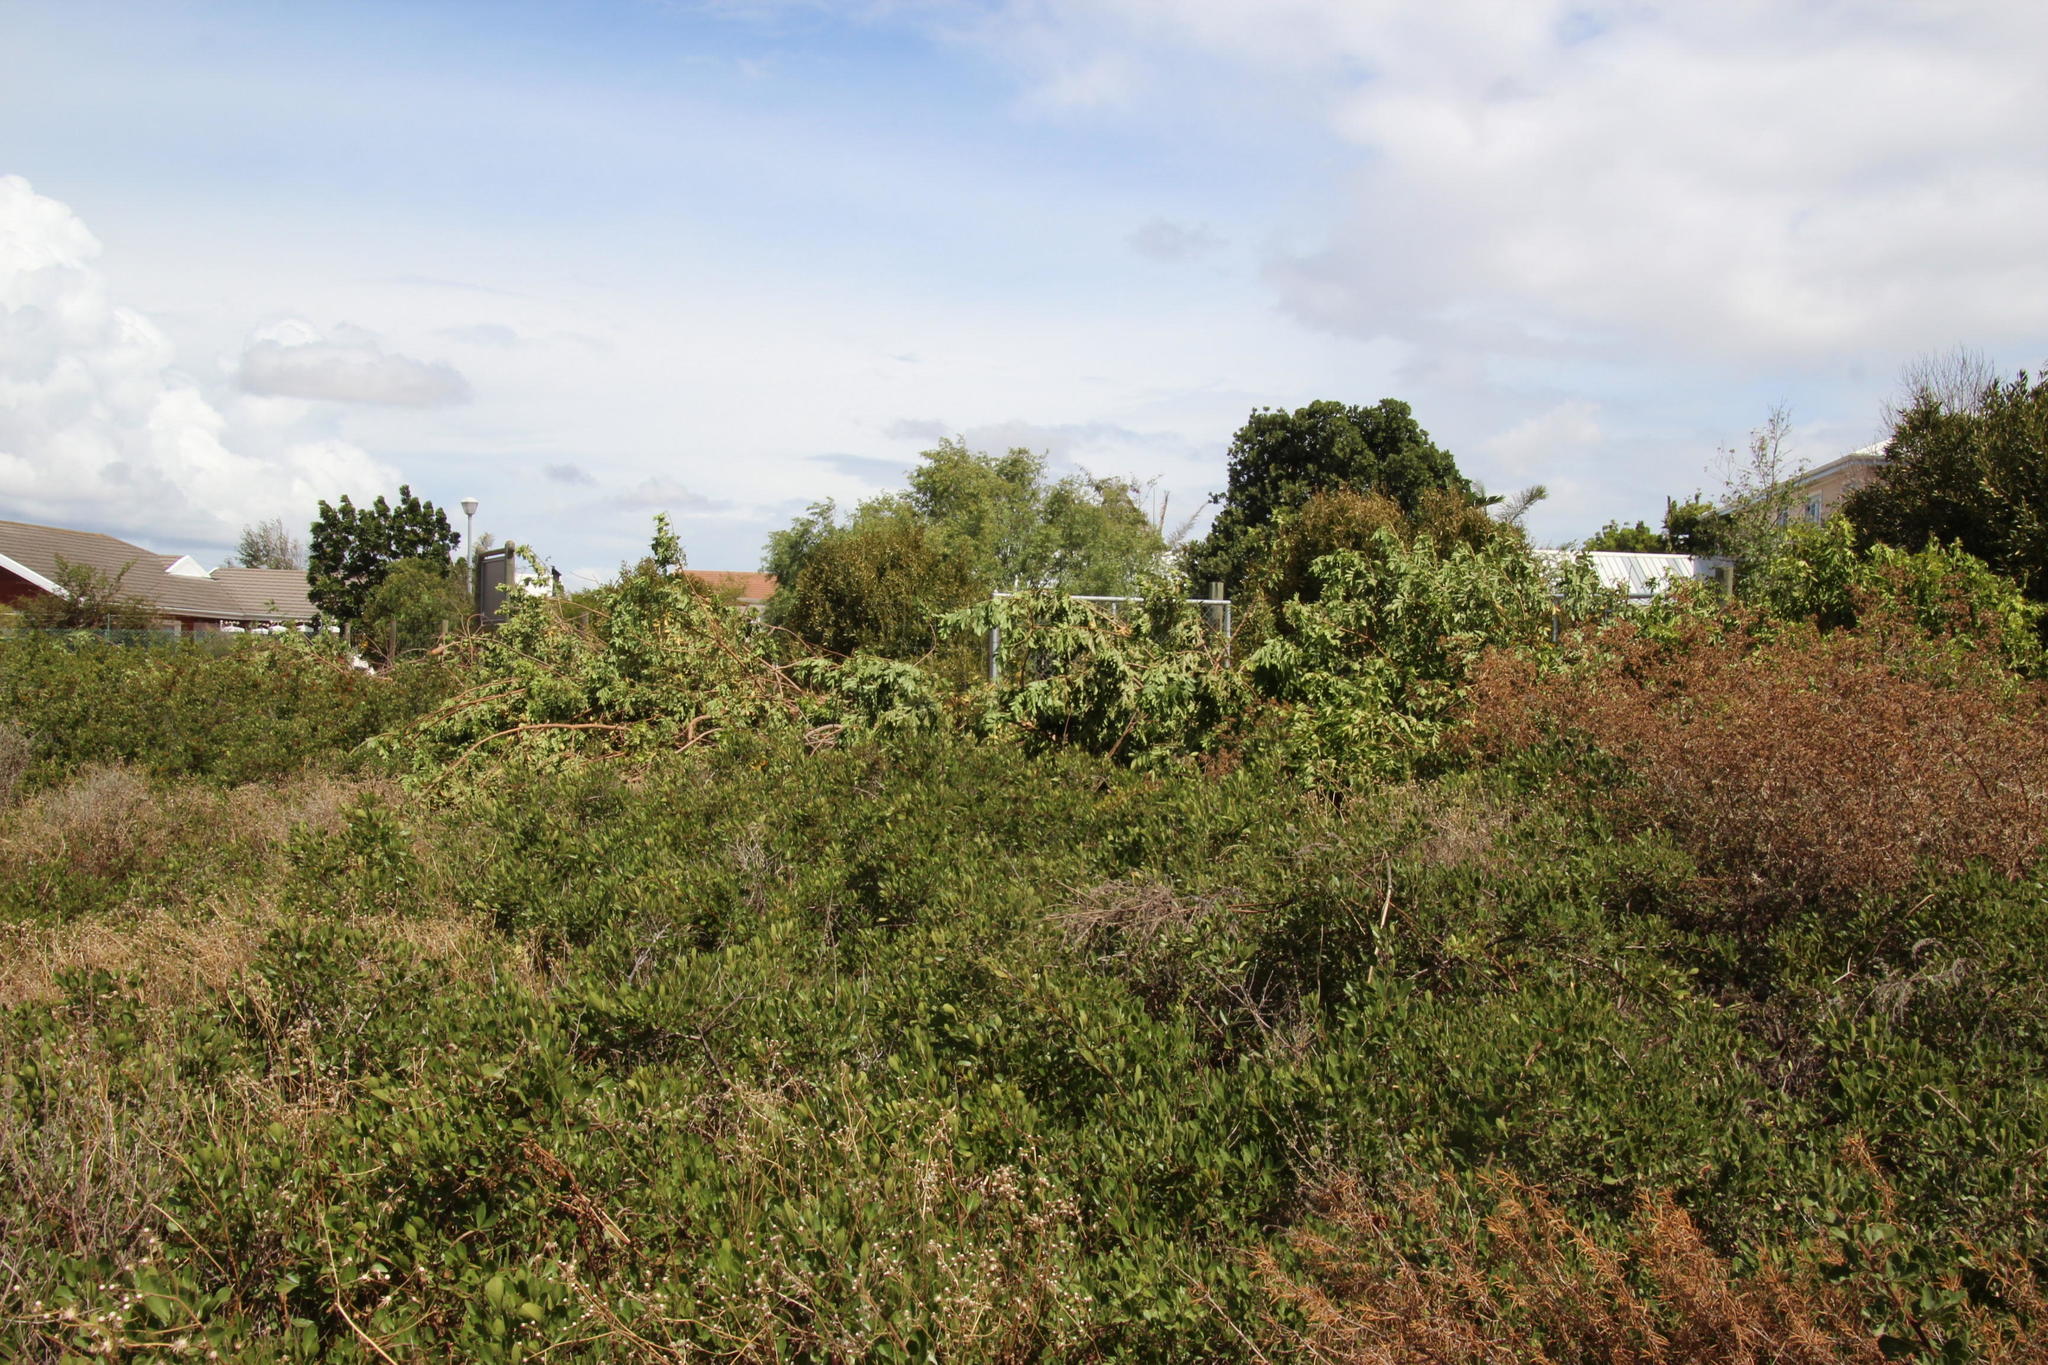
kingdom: Plantae
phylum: Tracheophyta
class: Magnoliopsida
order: Sapindales
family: Anacardiaceae
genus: Schinus
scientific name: Schinus terebinthifolia
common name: Brazilian peppertree
